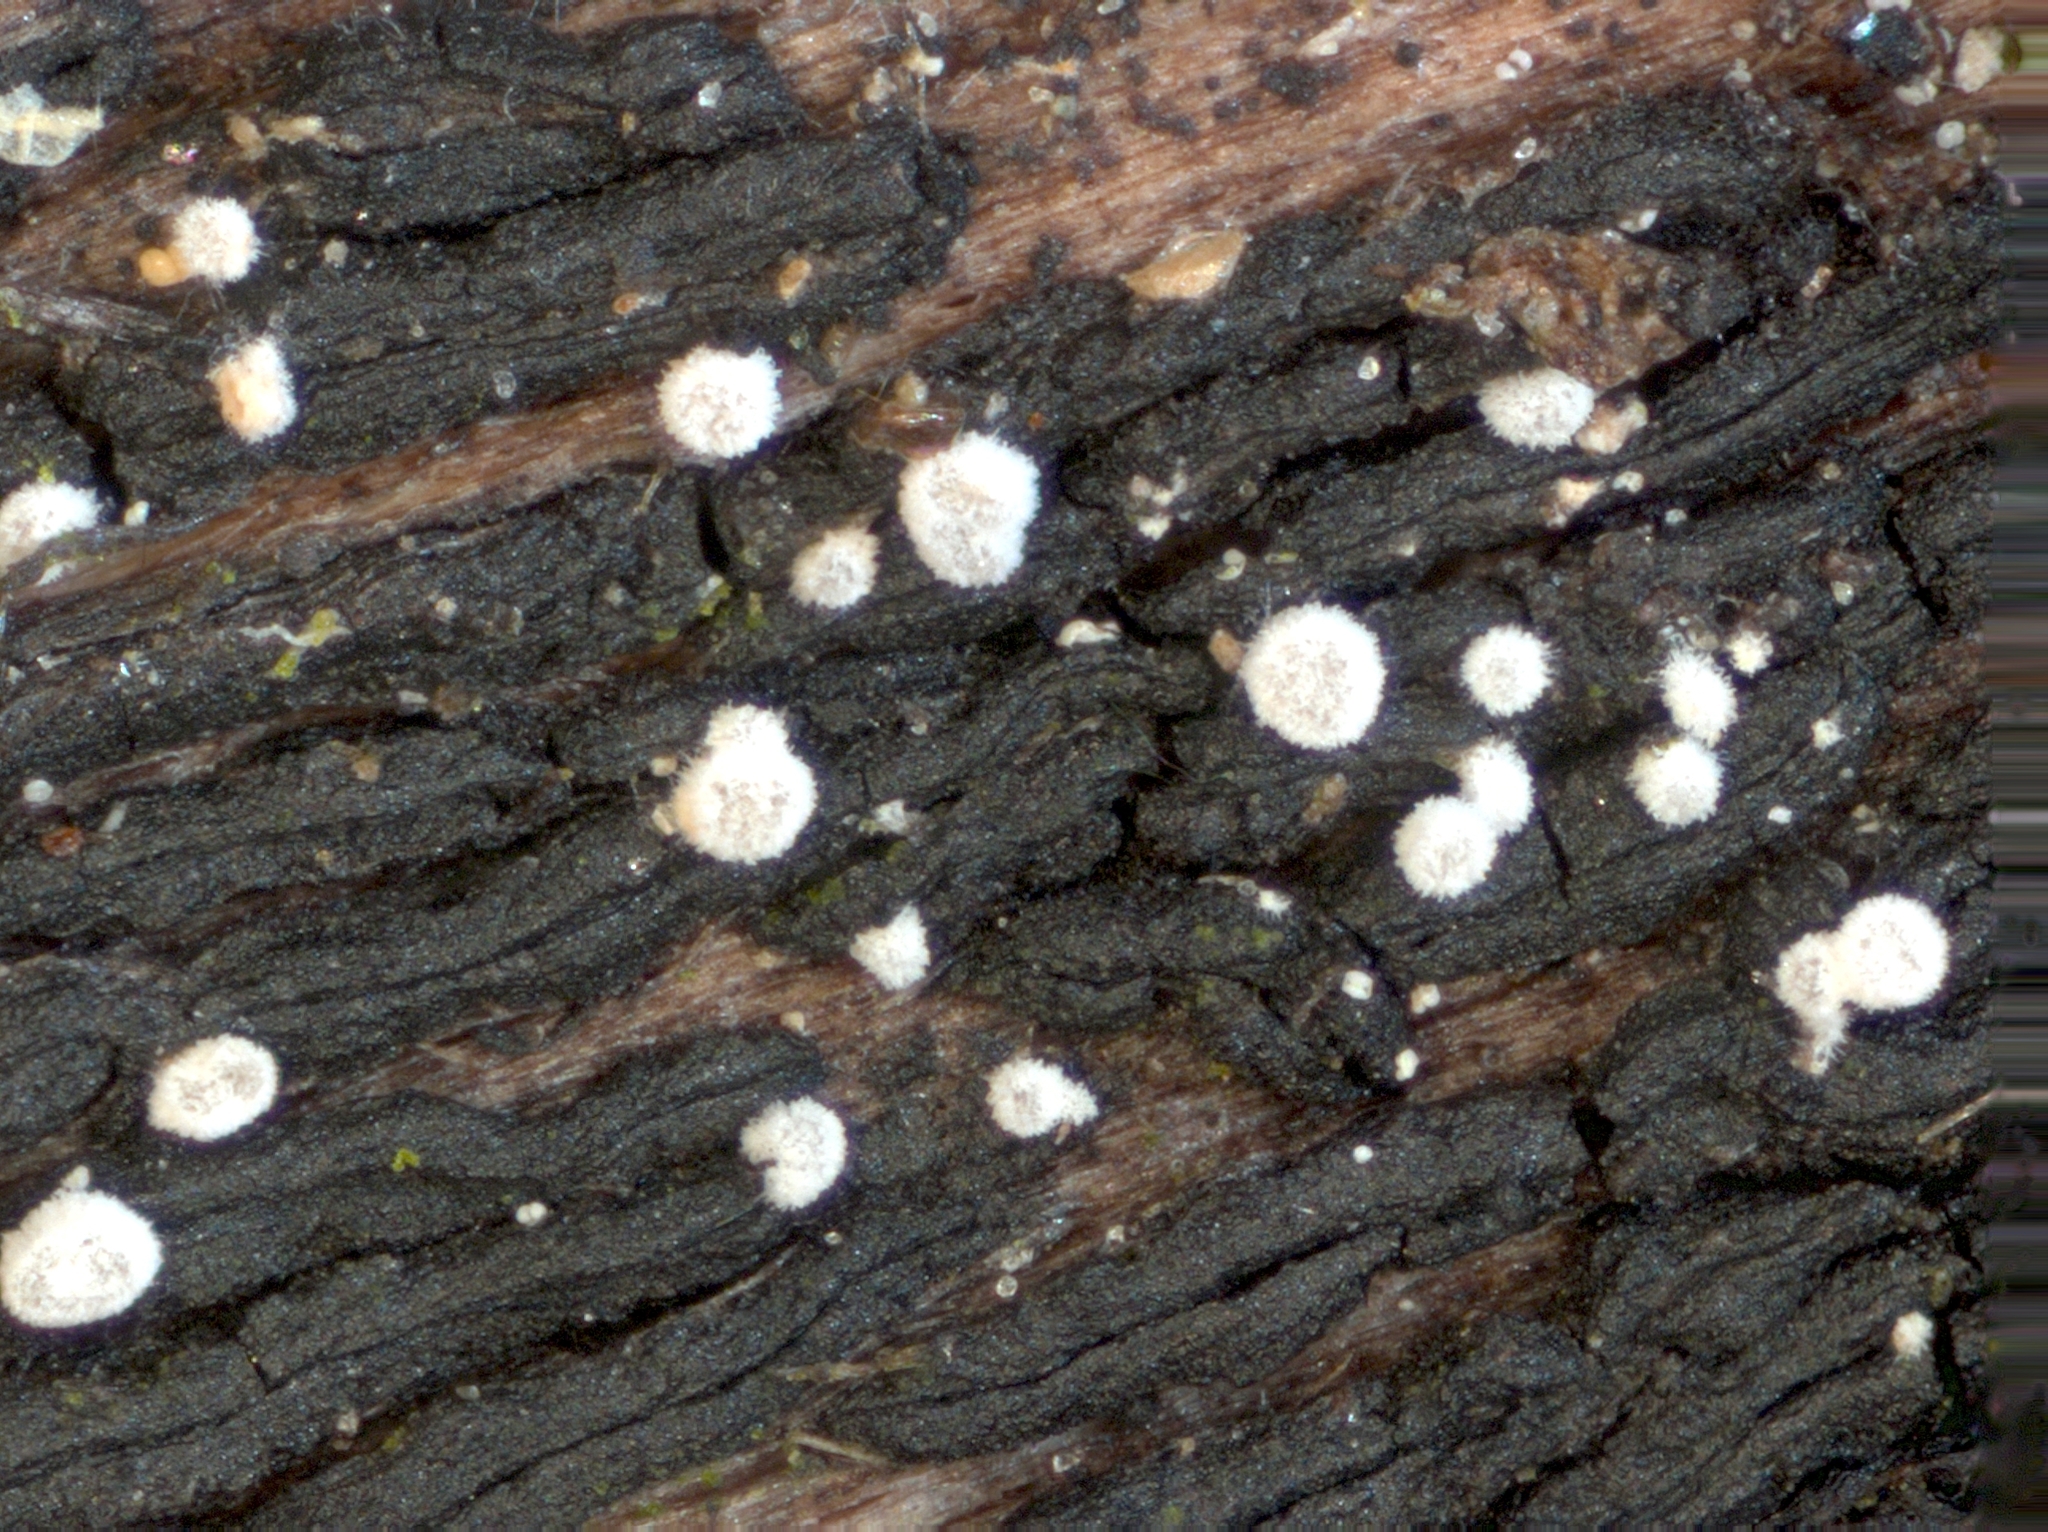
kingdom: Fungi
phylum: Ascomycota
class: Leotiomycetes
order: Helotiales
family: Hyaloscyphaceae
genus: Polydesmia
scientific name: Polydesmia pruinosa
